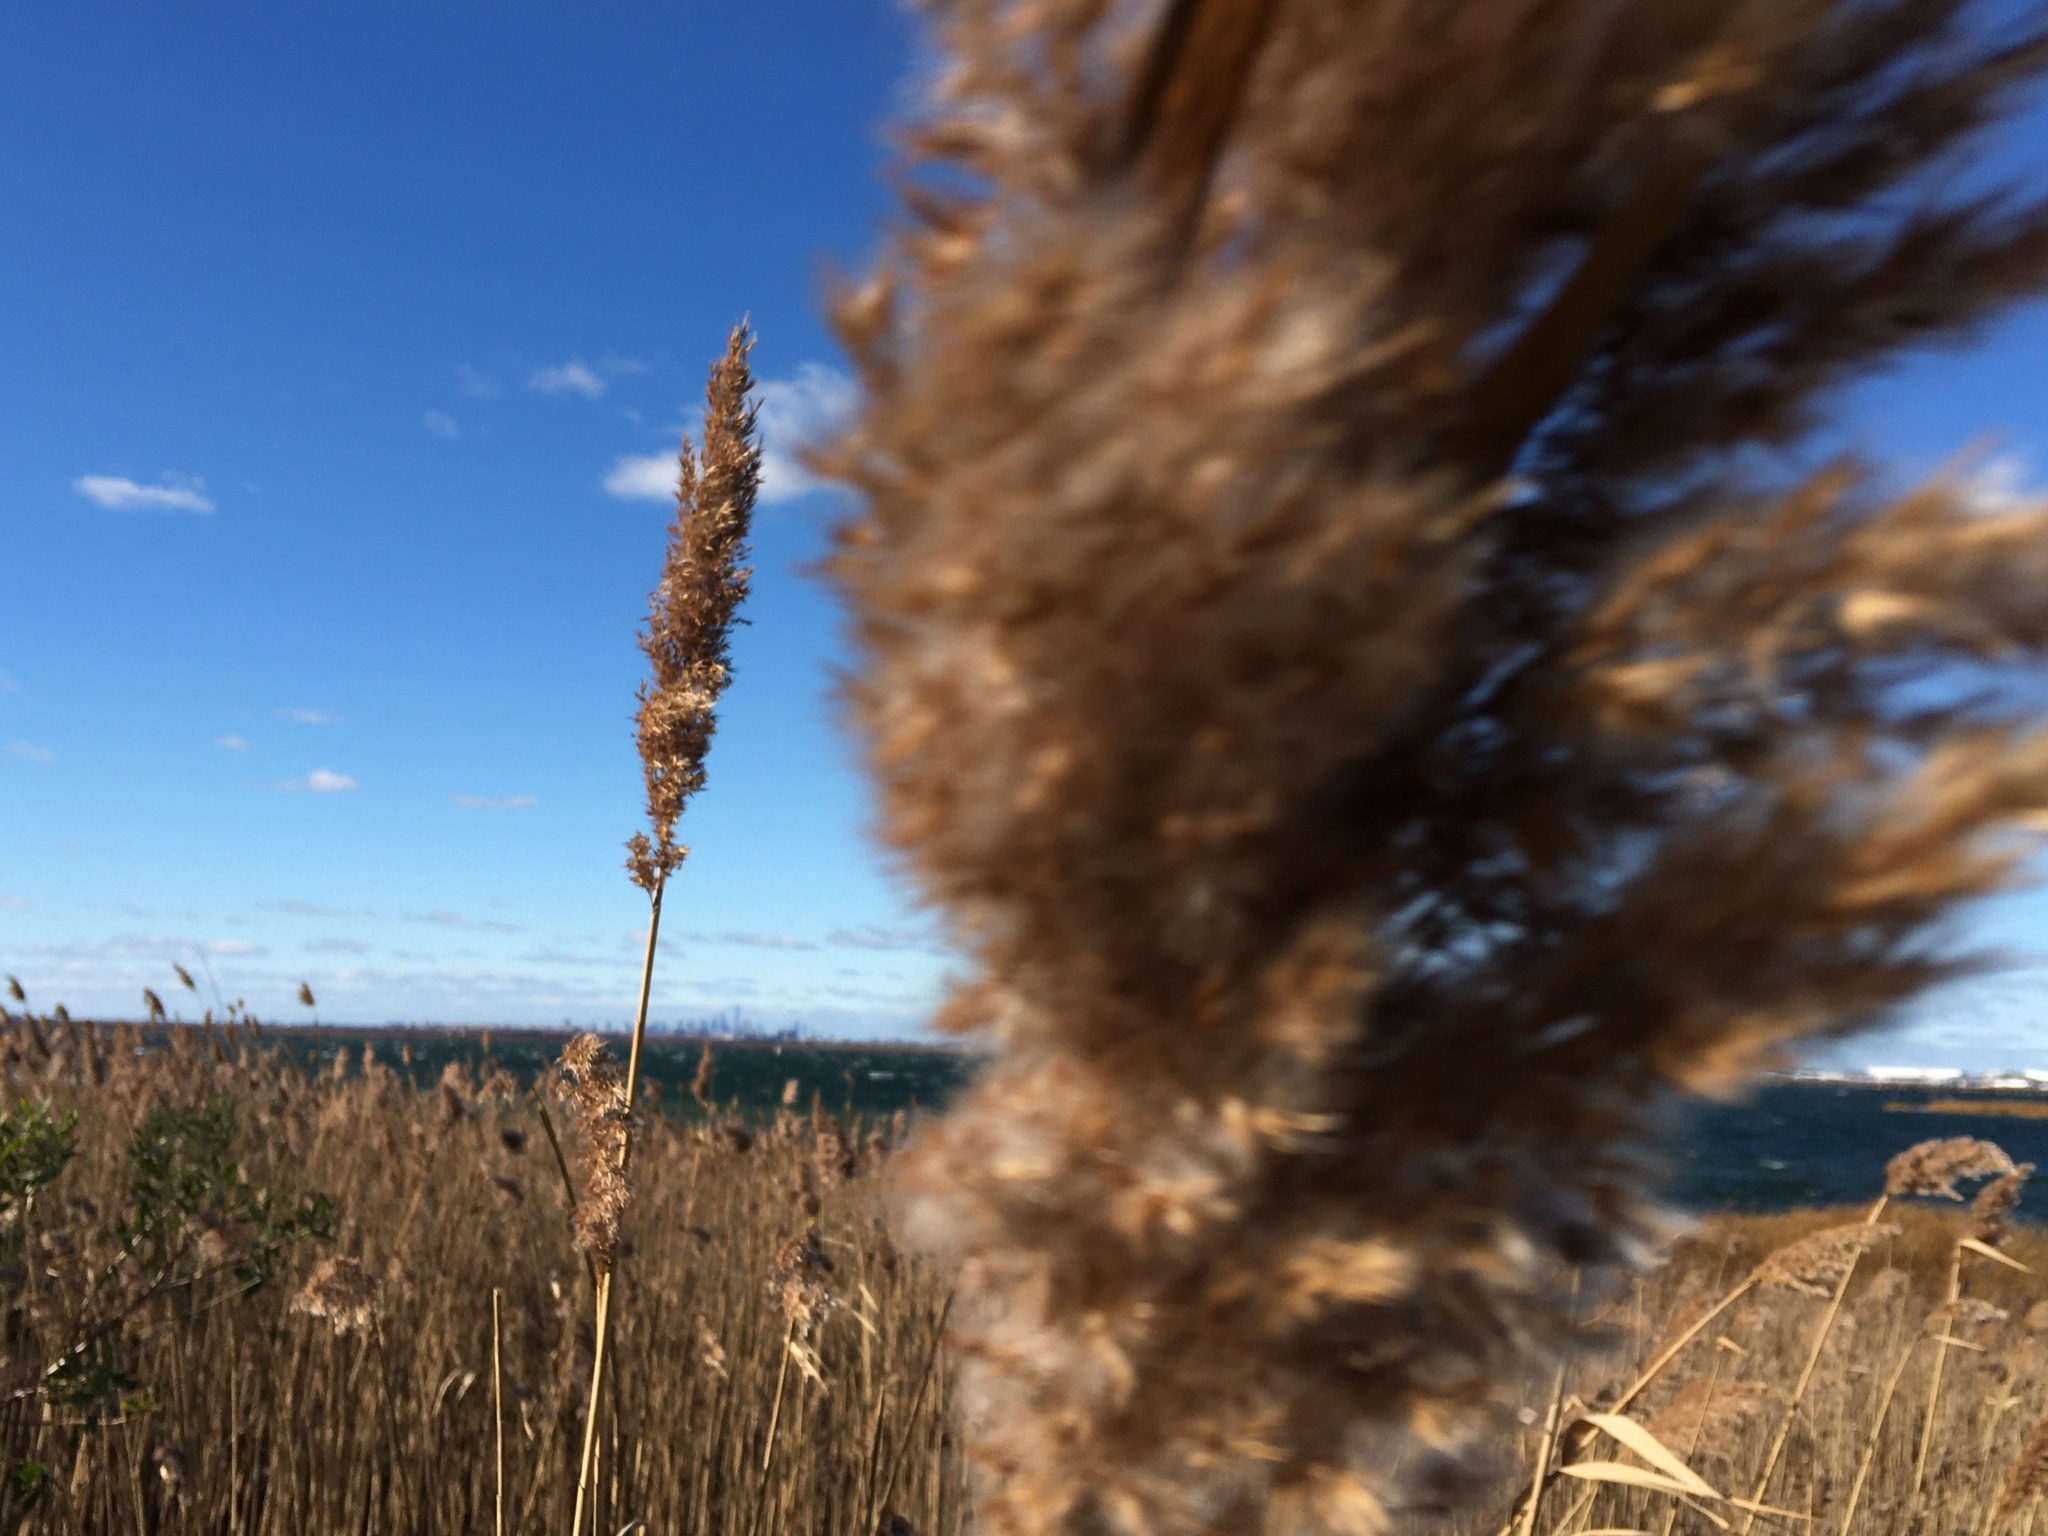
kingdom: Plantae
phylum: Tracheophyta
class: Liliopsida
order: Poales
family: Poaceae
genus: Phragmites
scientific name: Phragmites australis
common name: Common reed
